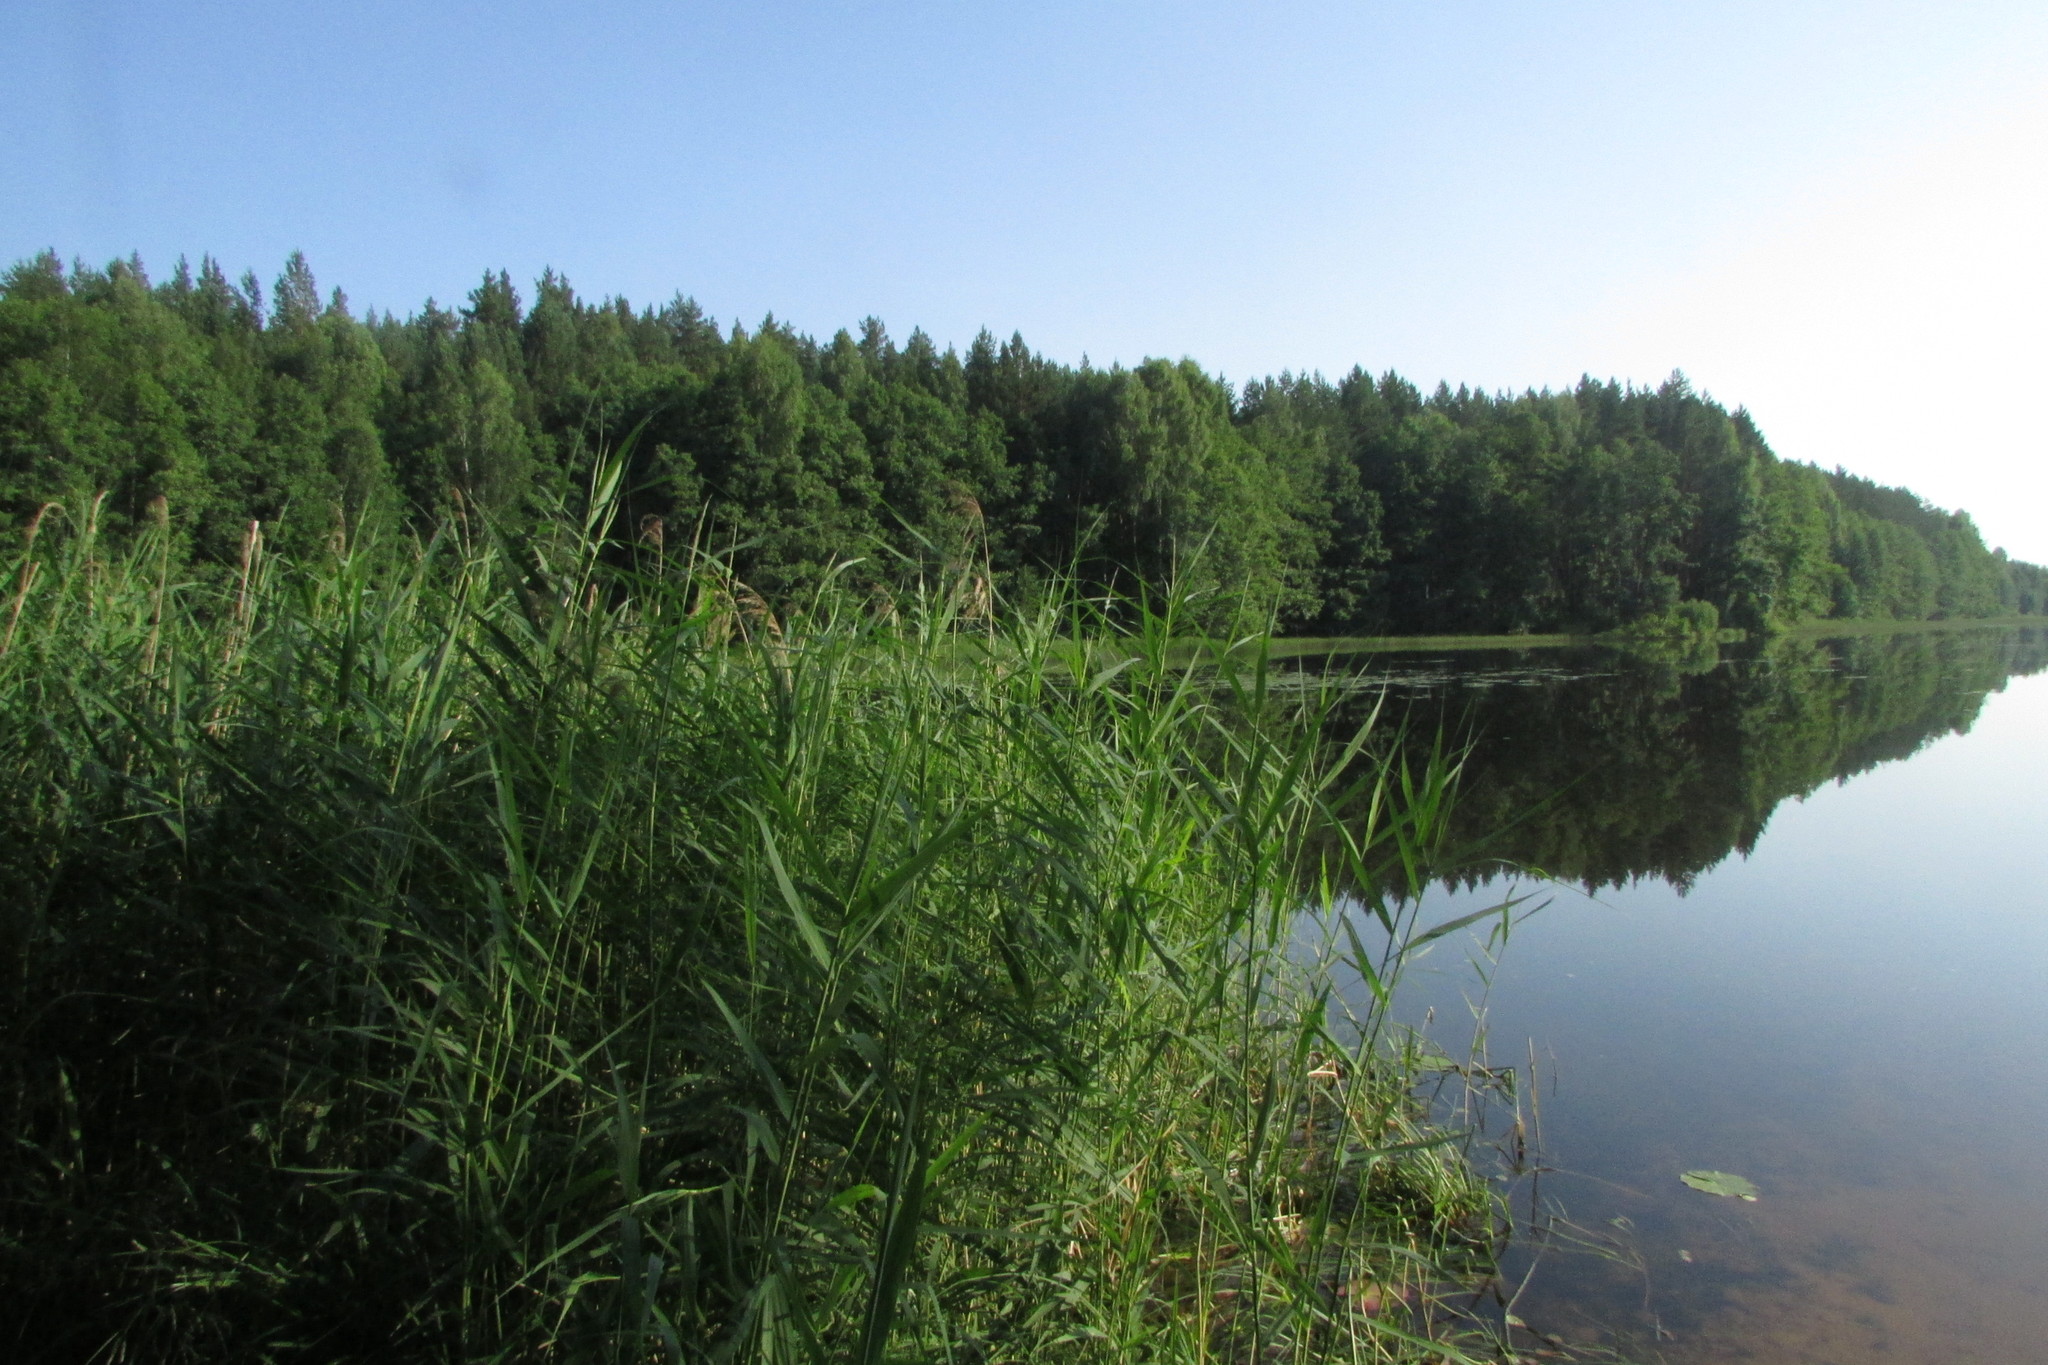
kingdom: Plantae
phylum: Tracheophyta
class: Liliopsida
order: Poales
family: Poaceae
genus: Phragmites
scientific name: Phragmites australis
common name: Common reed
